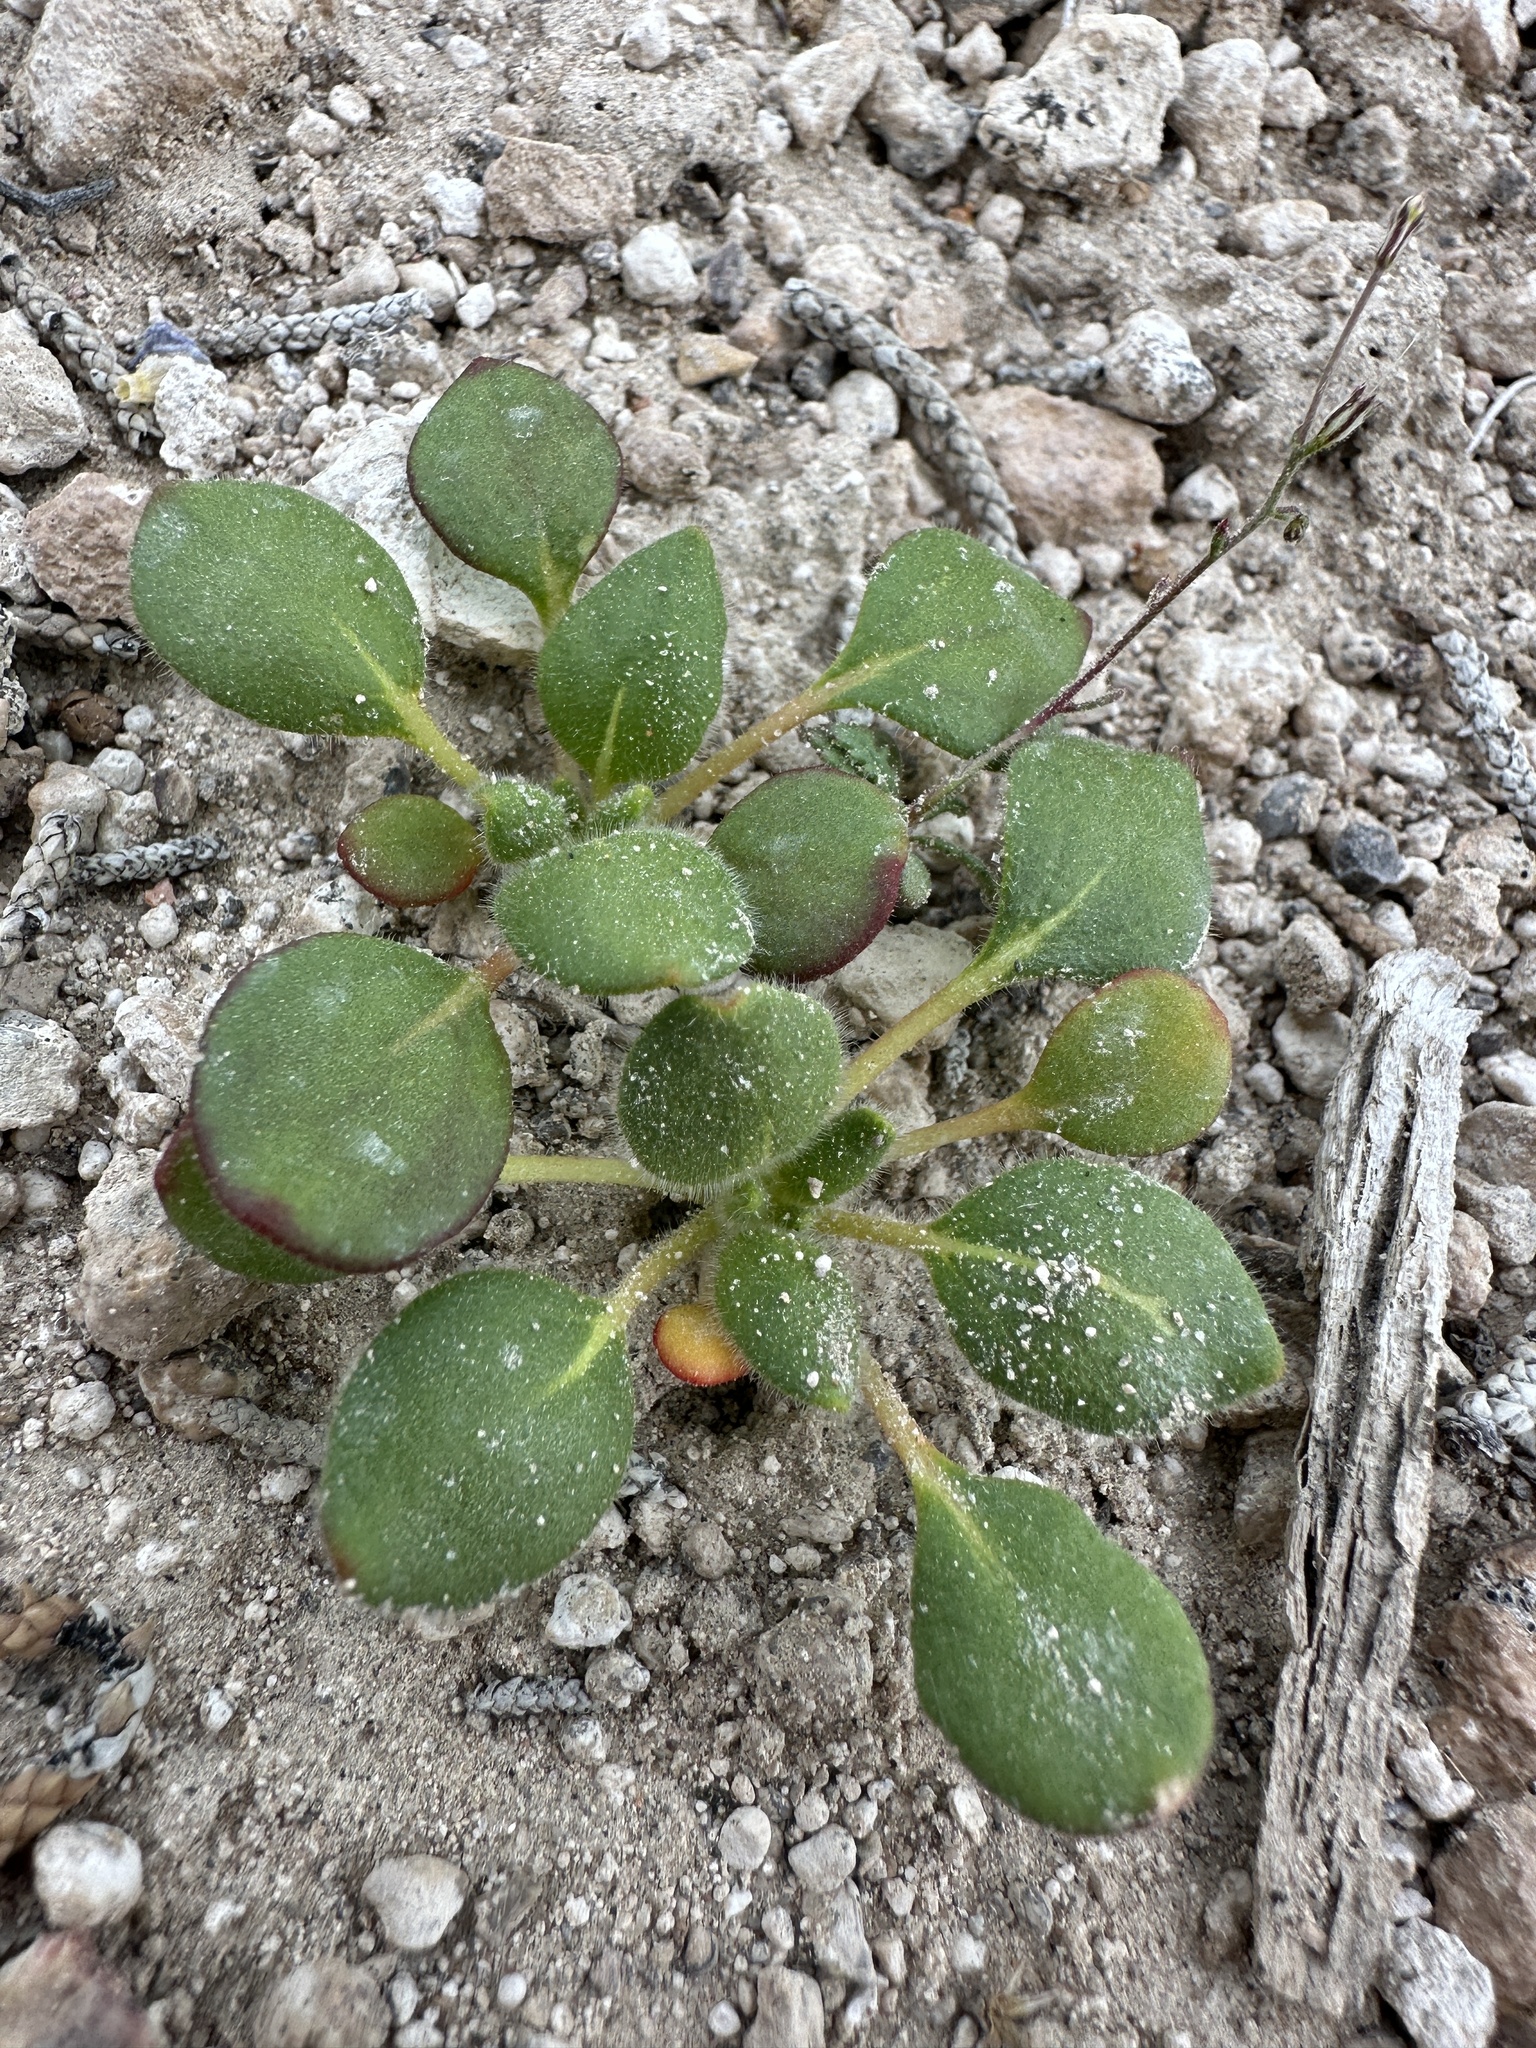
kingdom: Plantae
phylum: Tracheophyta
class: Magnoliopsida
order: Caryophyllales
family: Polygonaceae
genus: Eriogonum
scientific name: Eriogonum howellianum
